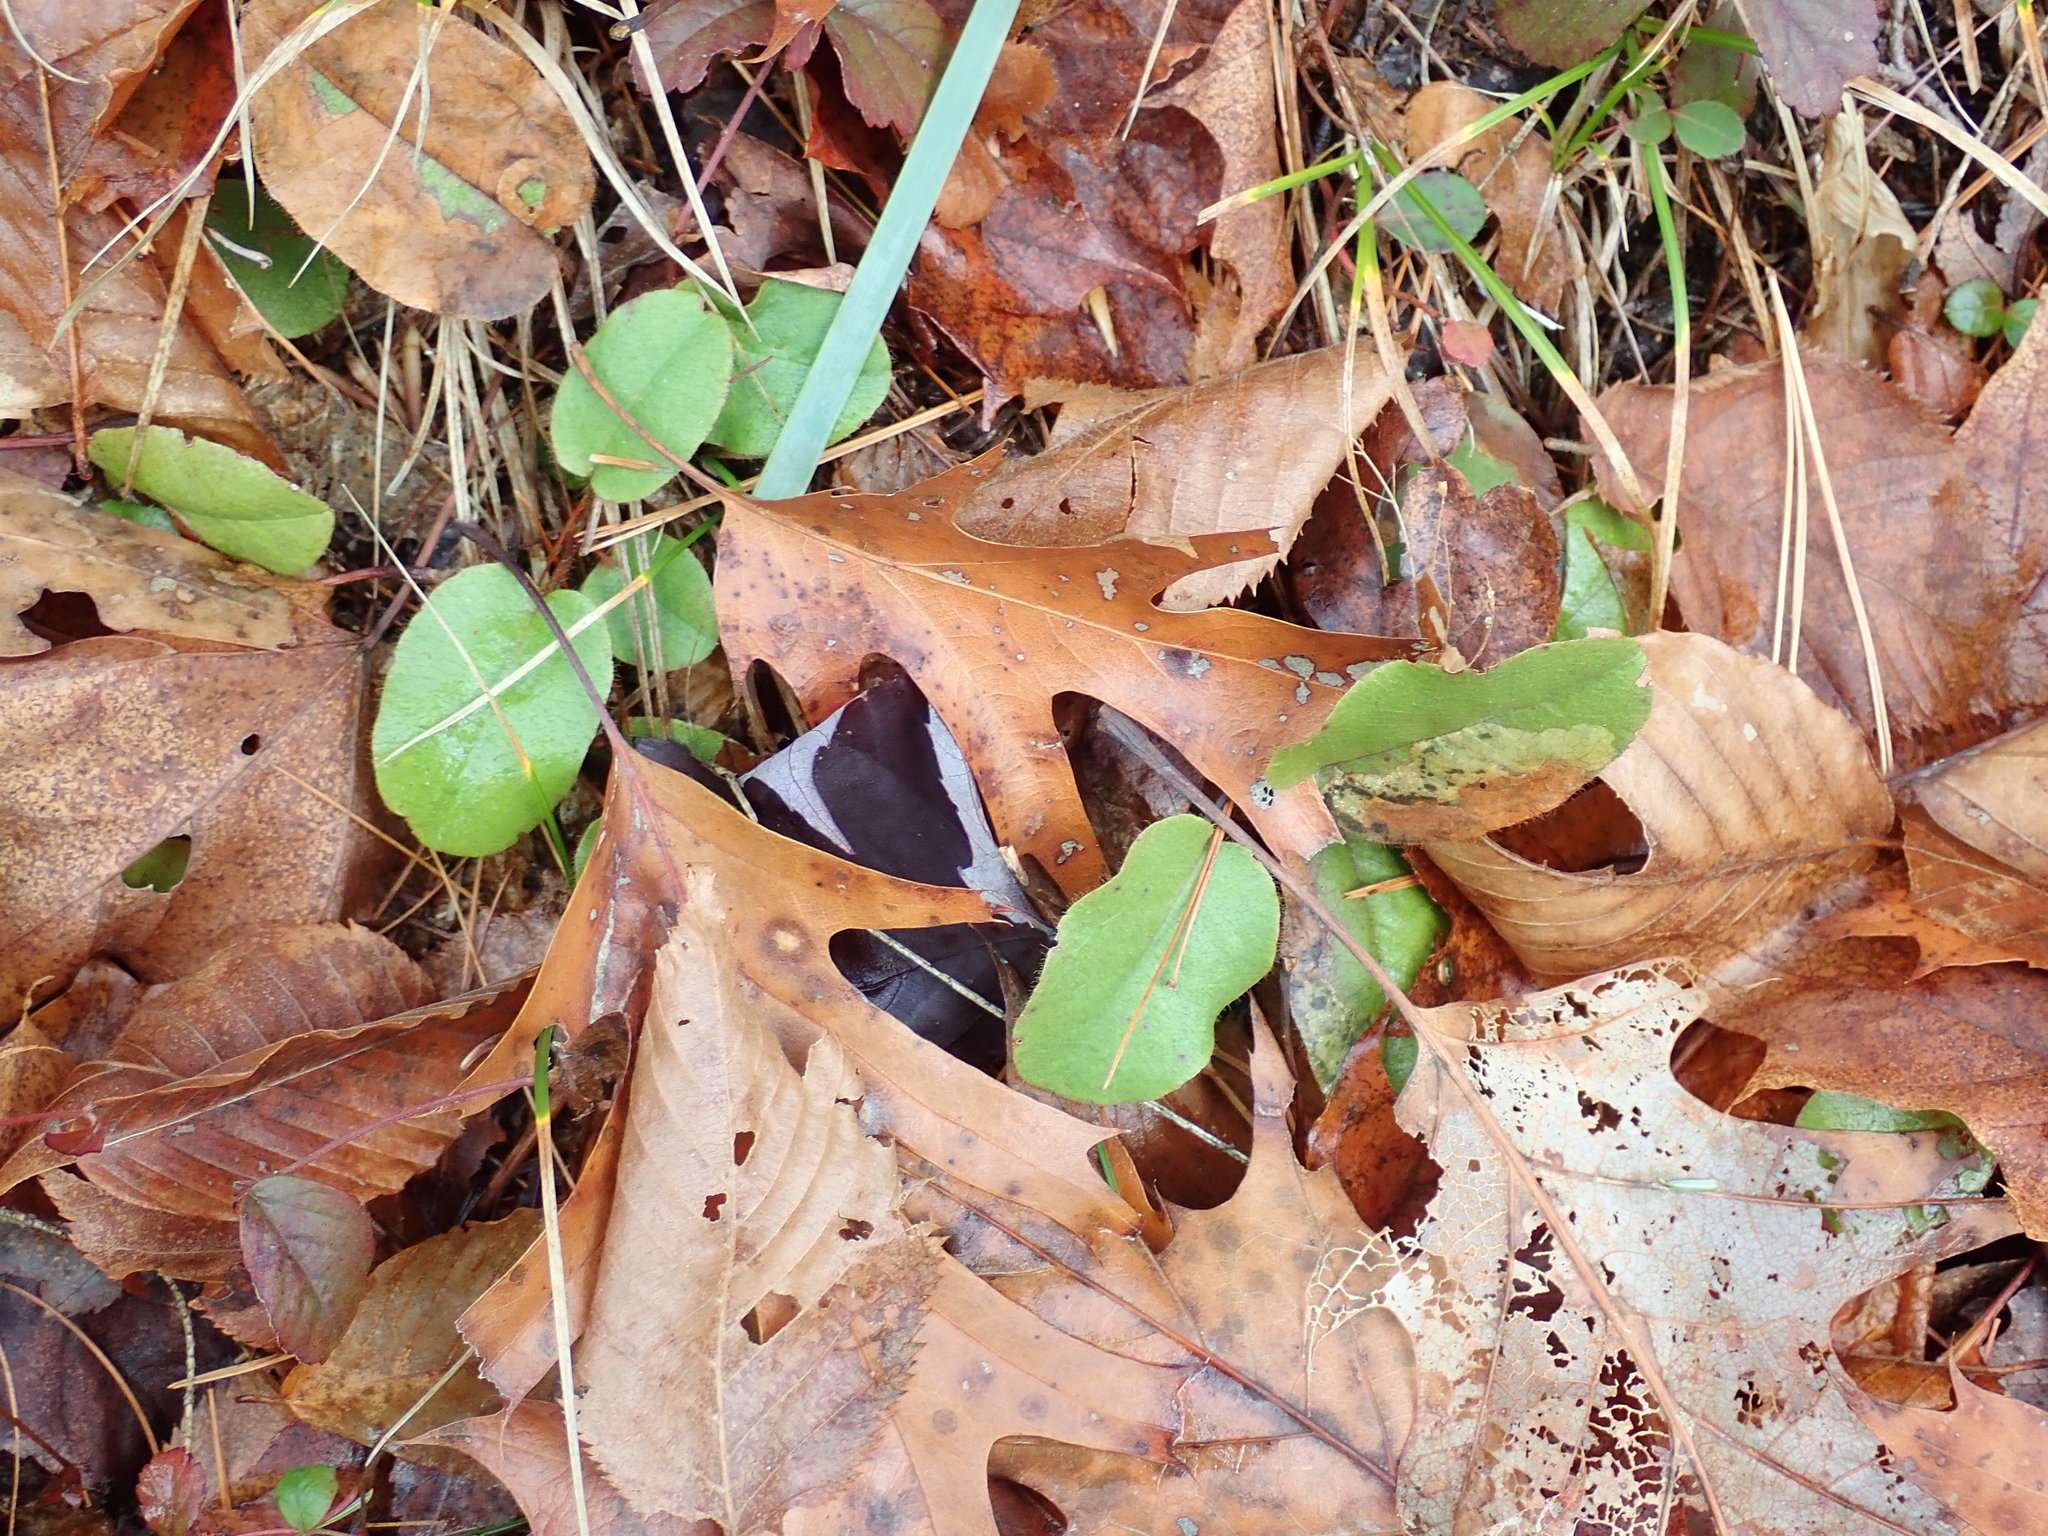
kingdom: Plantae
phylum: Tracheophyta
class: Magnoliopsida
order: Ericales
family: Ericaceae
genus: Epigaea
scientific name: Epigaea repens
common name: Gravelroot
